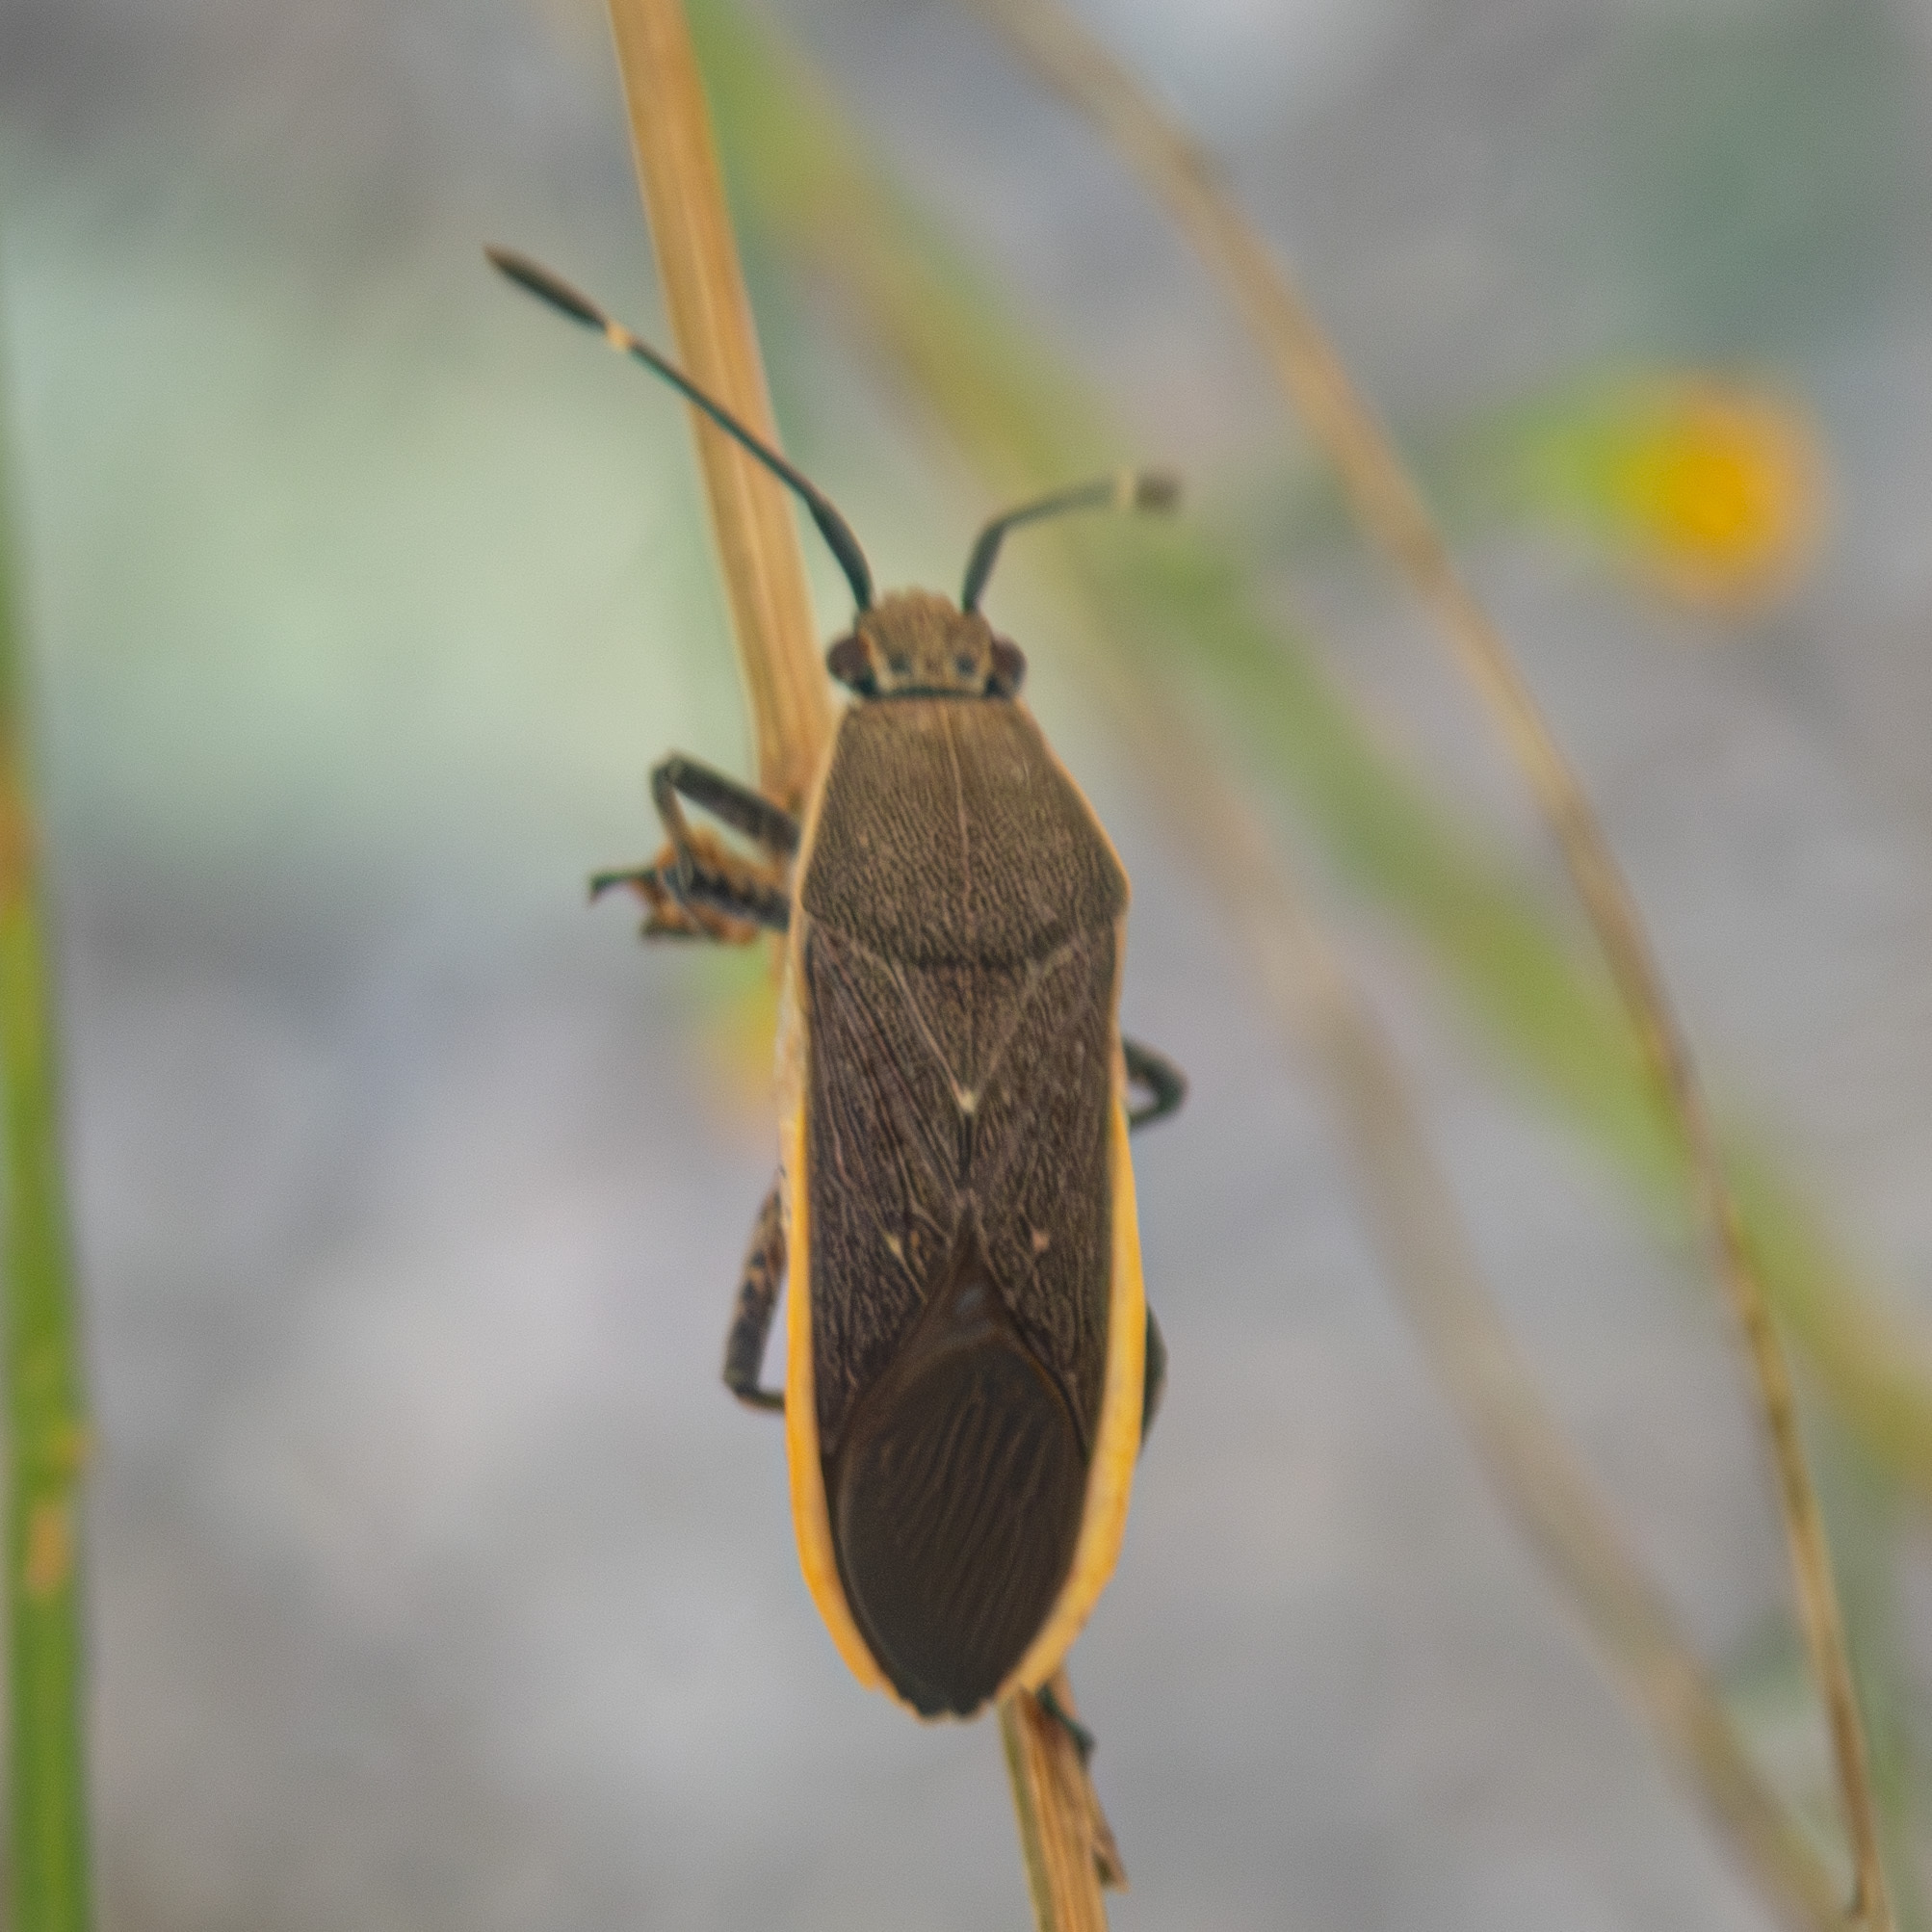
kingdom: Animalia
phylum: Arthropoda
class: Insecta
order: Hemiptera
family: Coreidae
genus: Catorhintha
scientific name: Catorhintha texana
